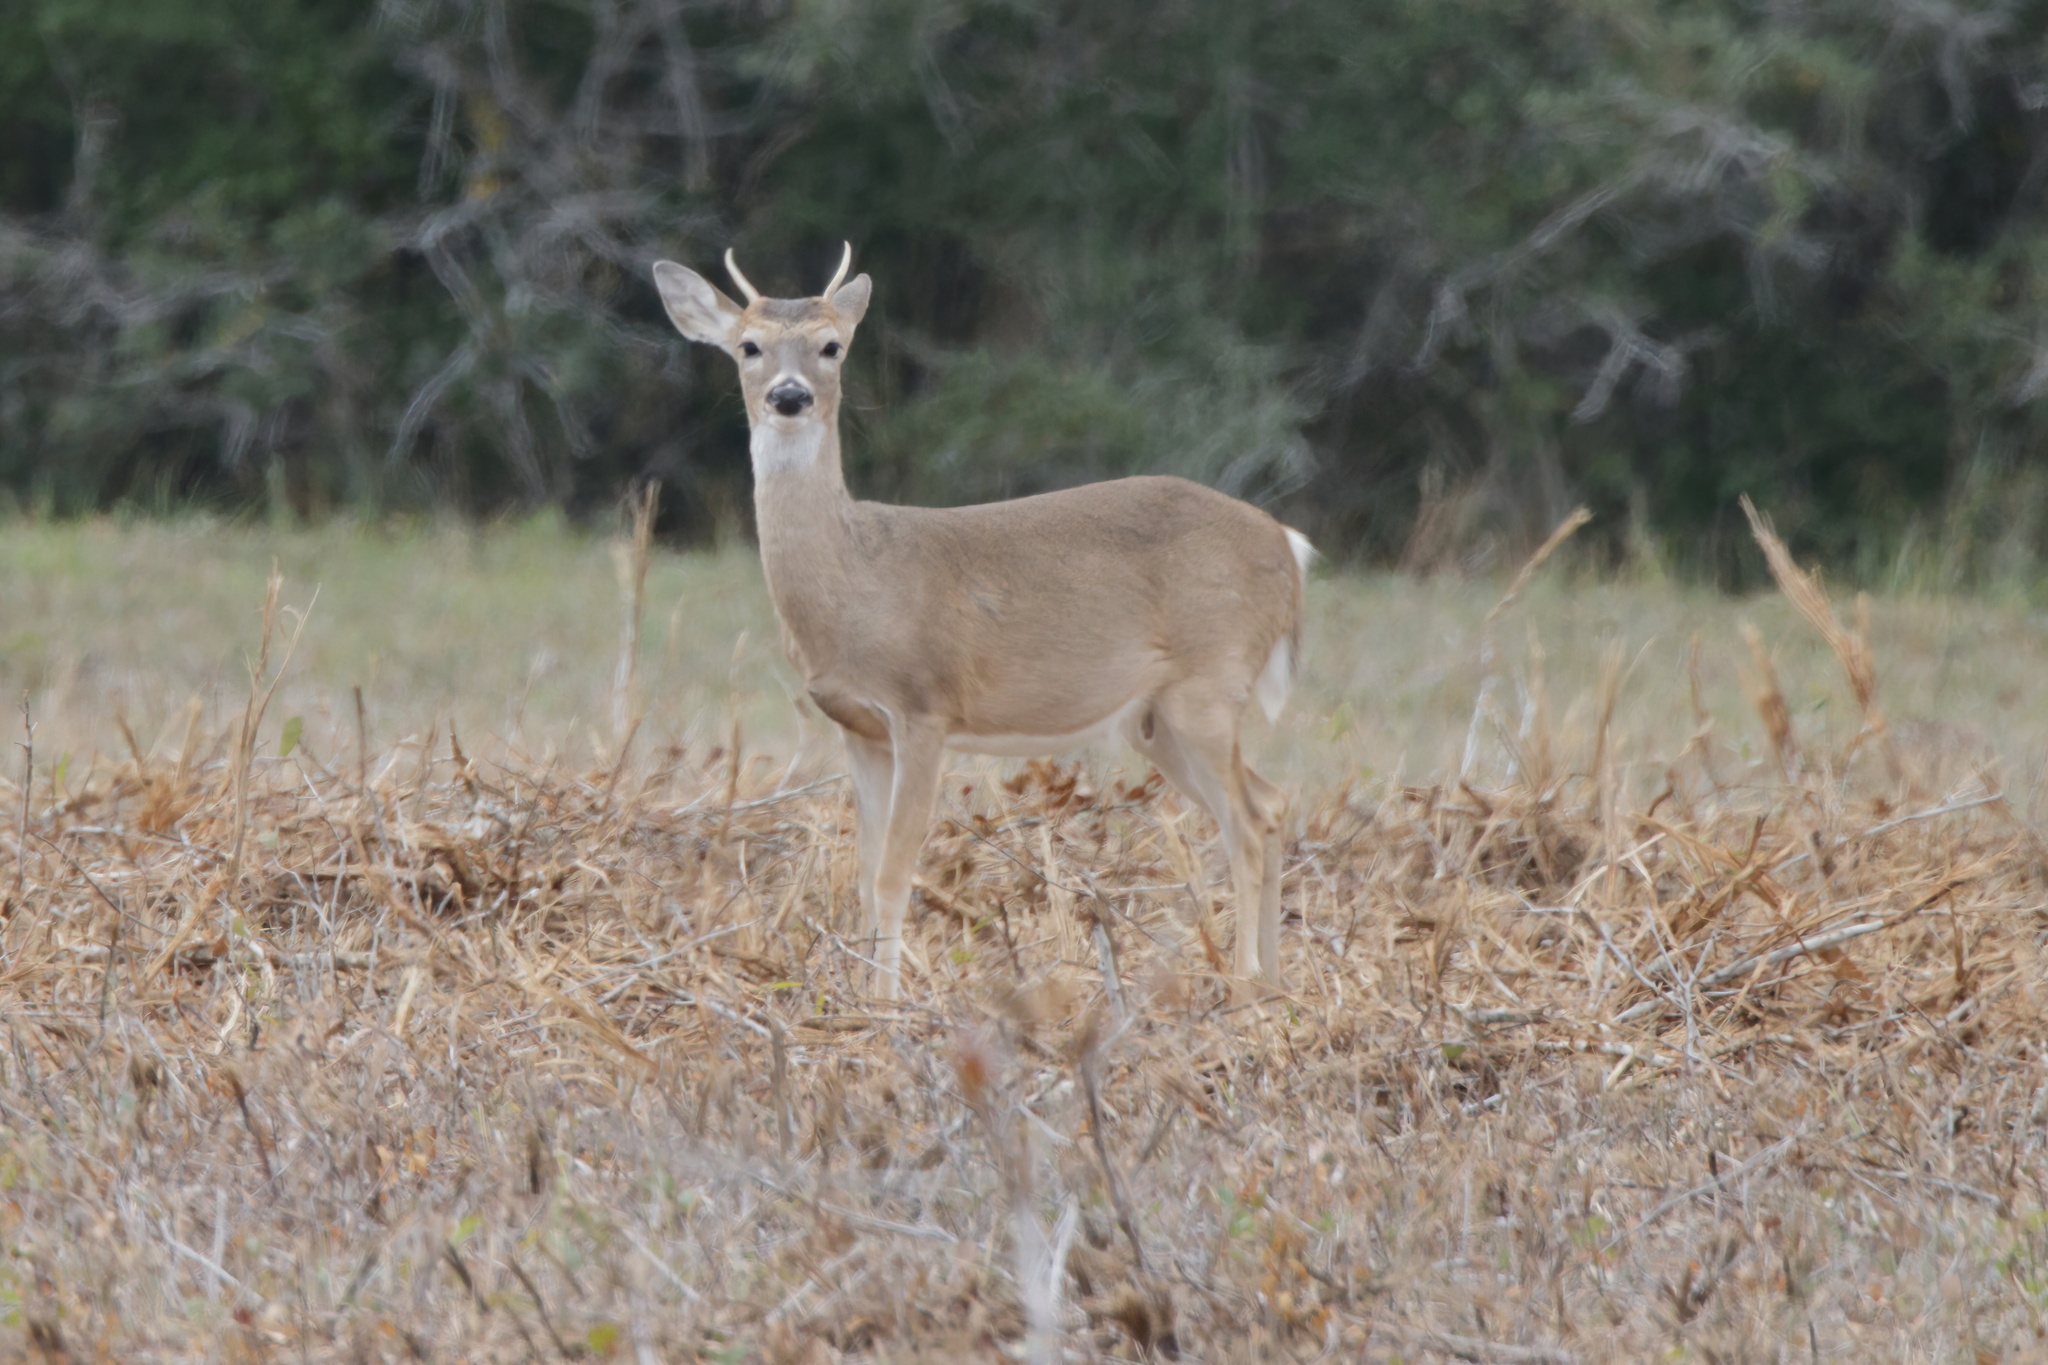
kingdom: Animalia
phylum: Chordata
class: Mammalia
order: Artiodactyla
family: Cervidae
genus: Odocoileus
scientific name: Odocoileus virginianus
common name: White-tailed deer
